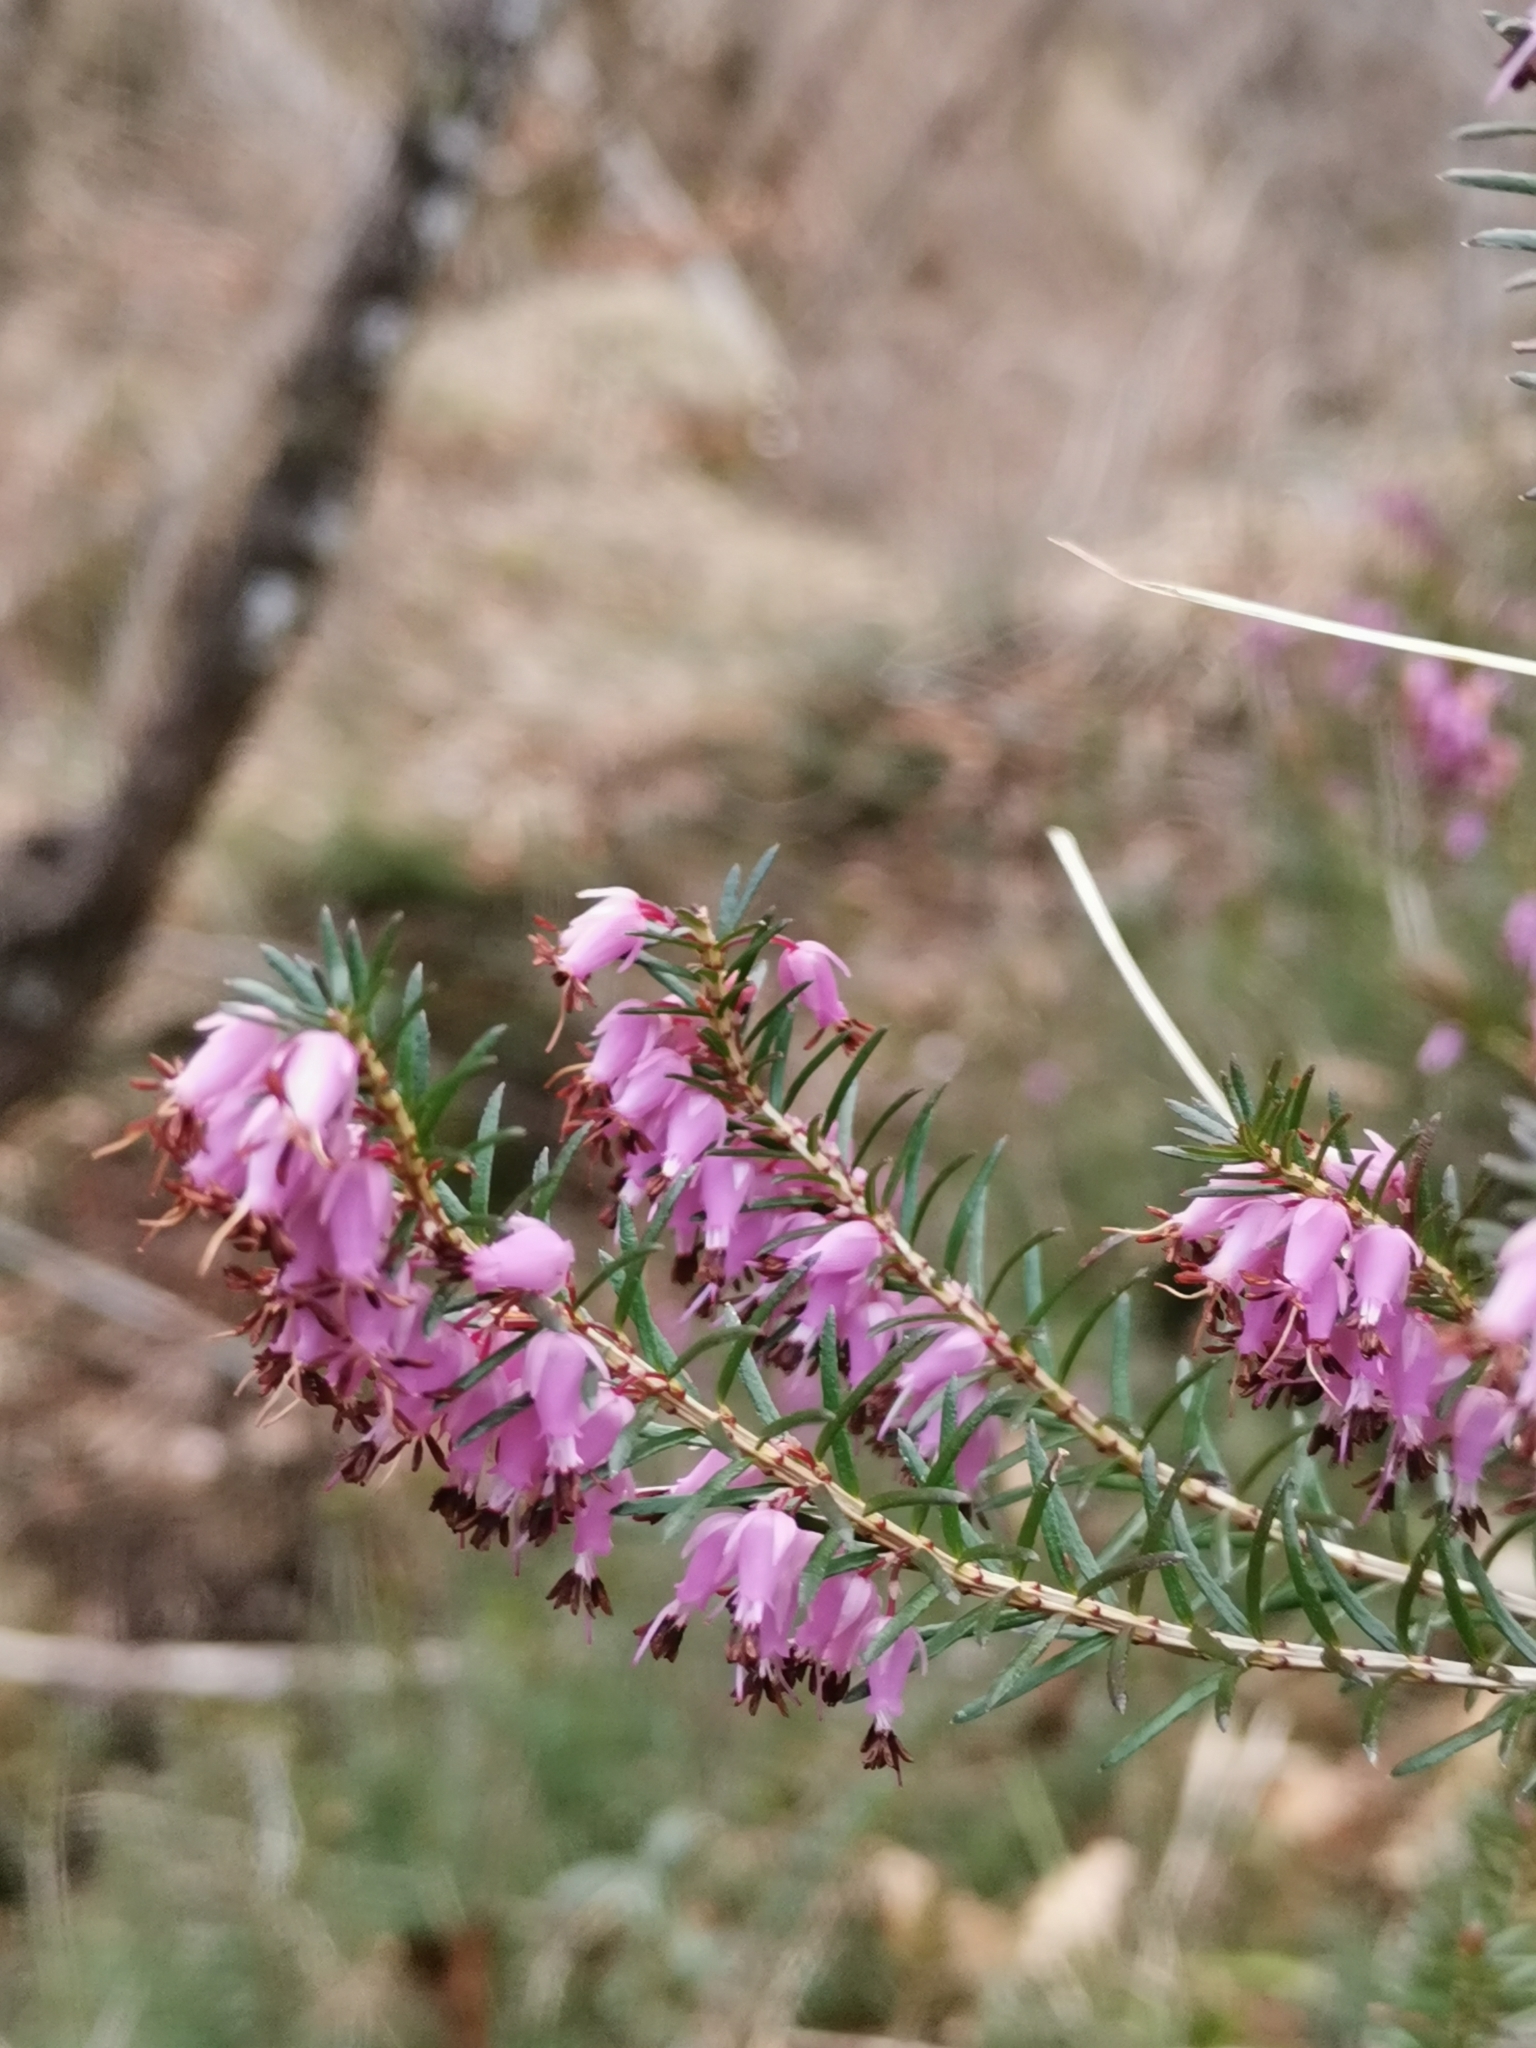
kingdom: Plantae
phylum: Tracheophyta
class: Magnoliopsida
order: Ericales
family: Ericaceae
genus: Erica
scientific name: Erica carnea
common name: Winter heath
